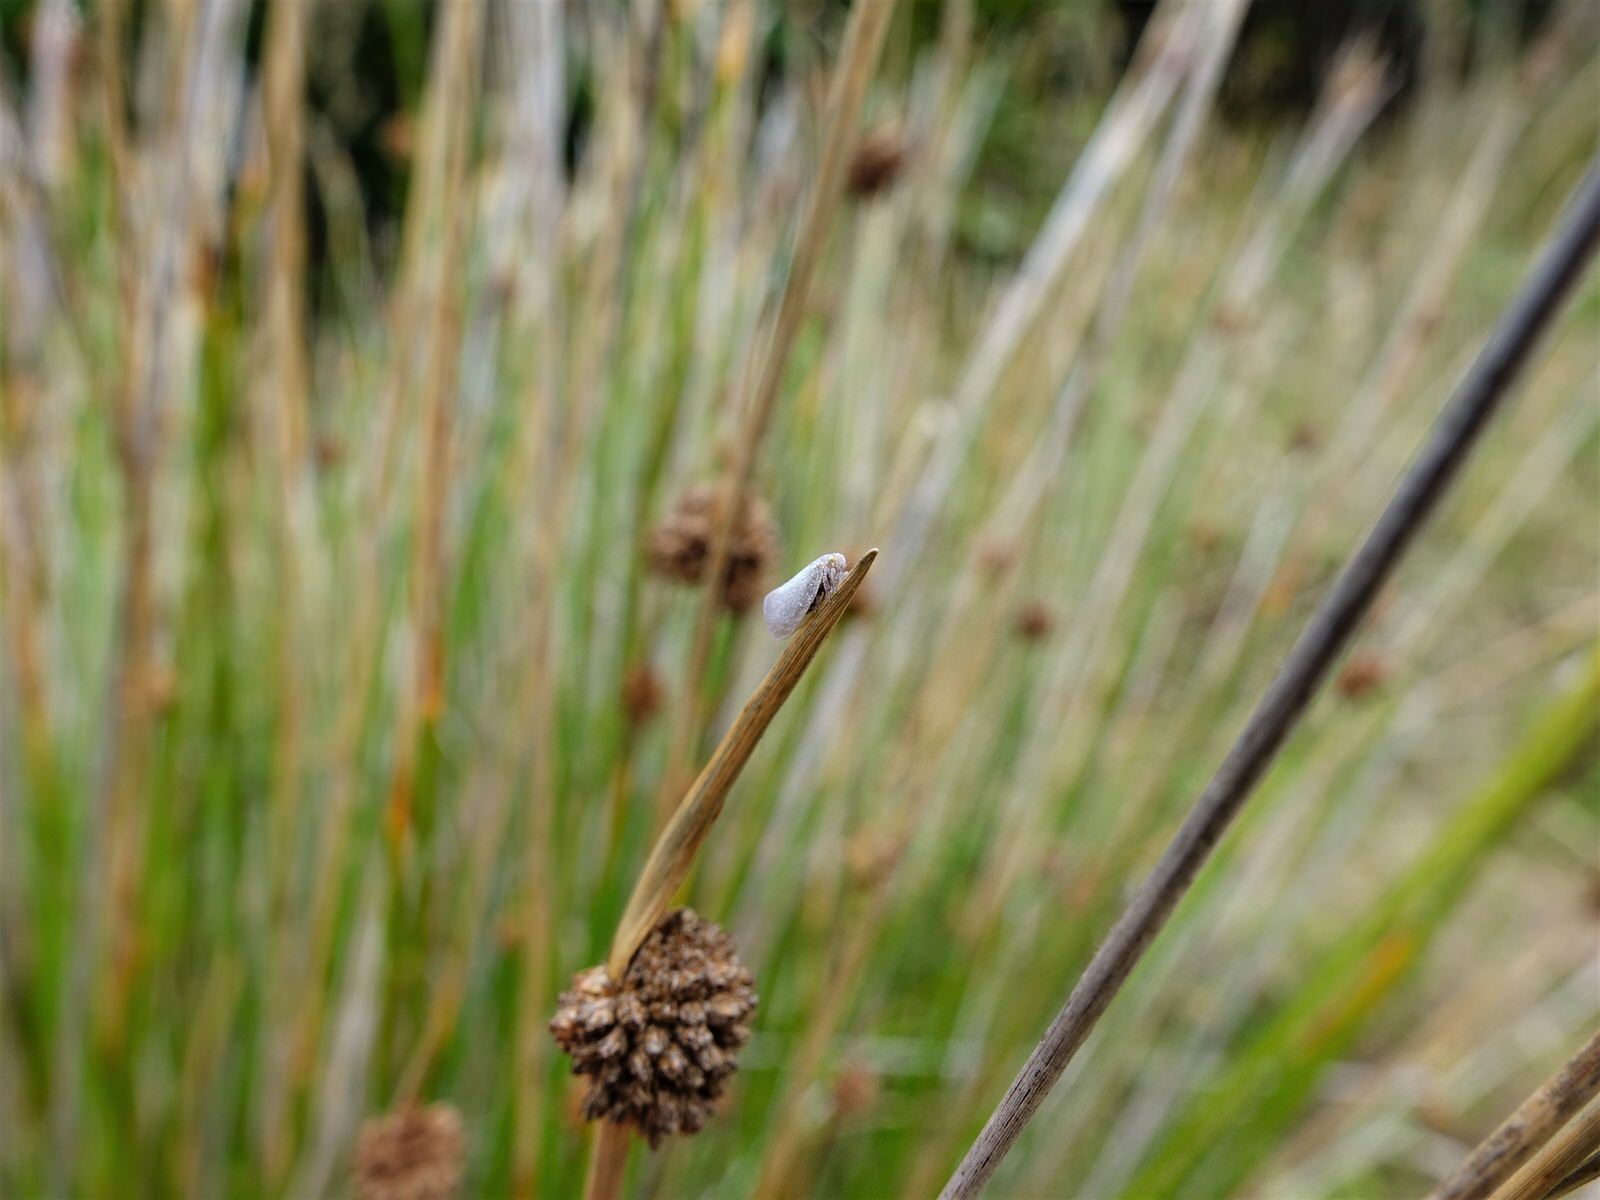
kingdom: Animalia
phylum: Arthropoda
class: Insecta
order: Hemiptera
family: Flatidae
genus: Anzora
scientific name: Anzora unicolor
